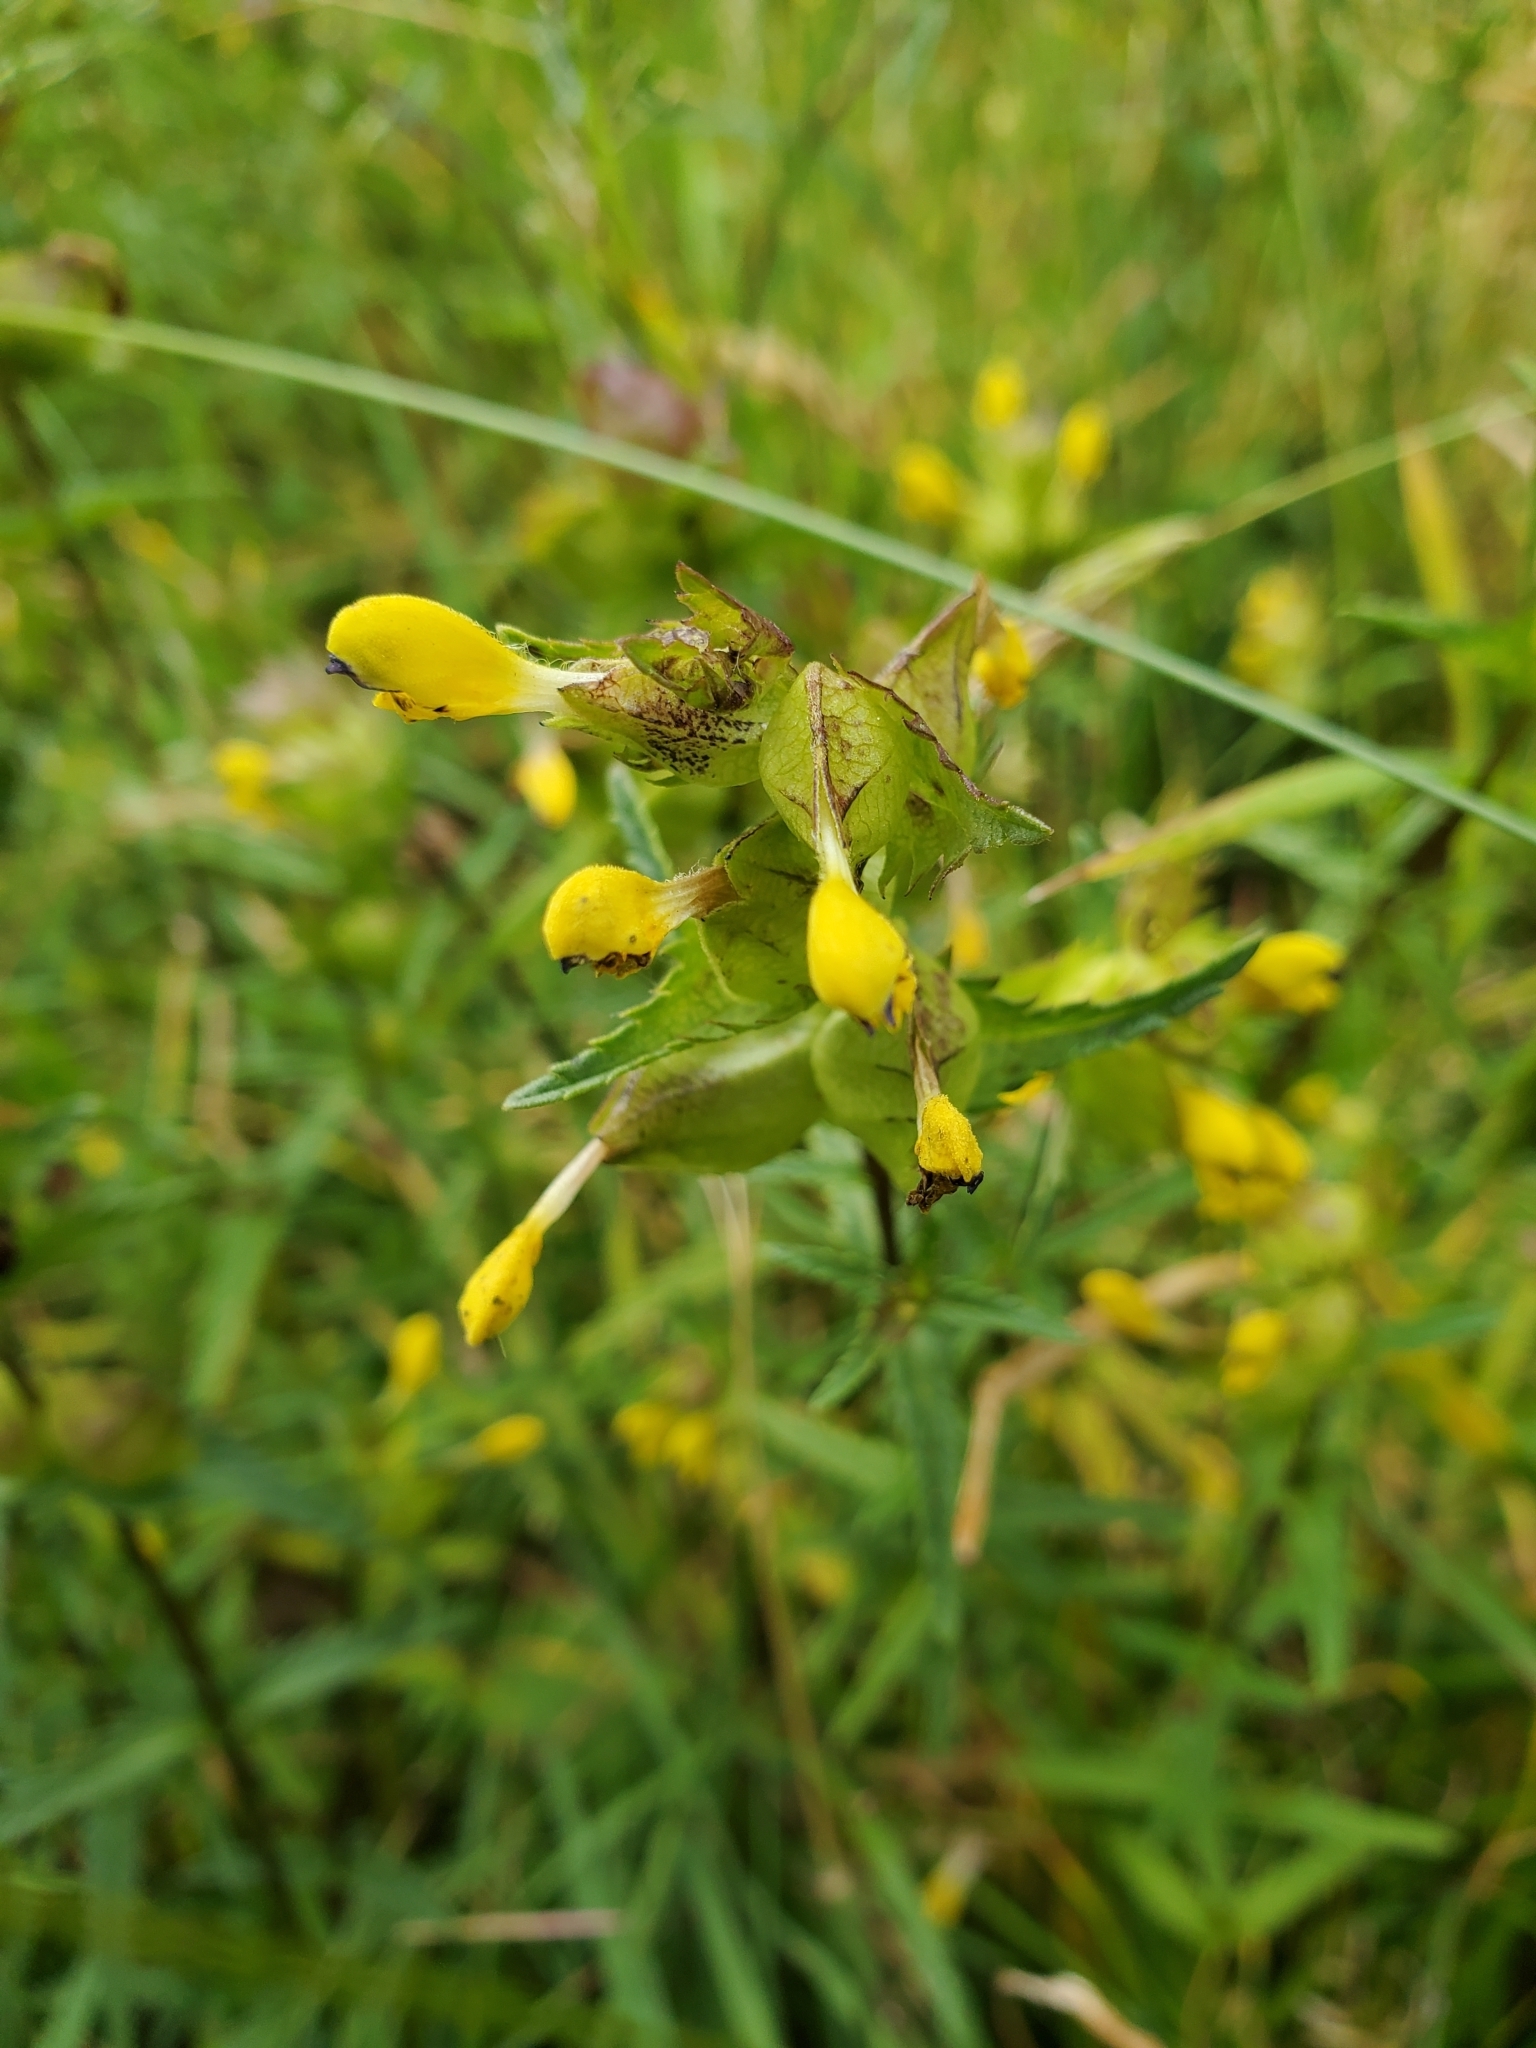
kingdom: Plantae
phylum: Tracheophyta
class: Magnoliopsida
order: Lamiales
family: Orobanchaceae
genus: Rhinanthus
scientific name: Rhinanthus minor
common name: Yellow-rattle
